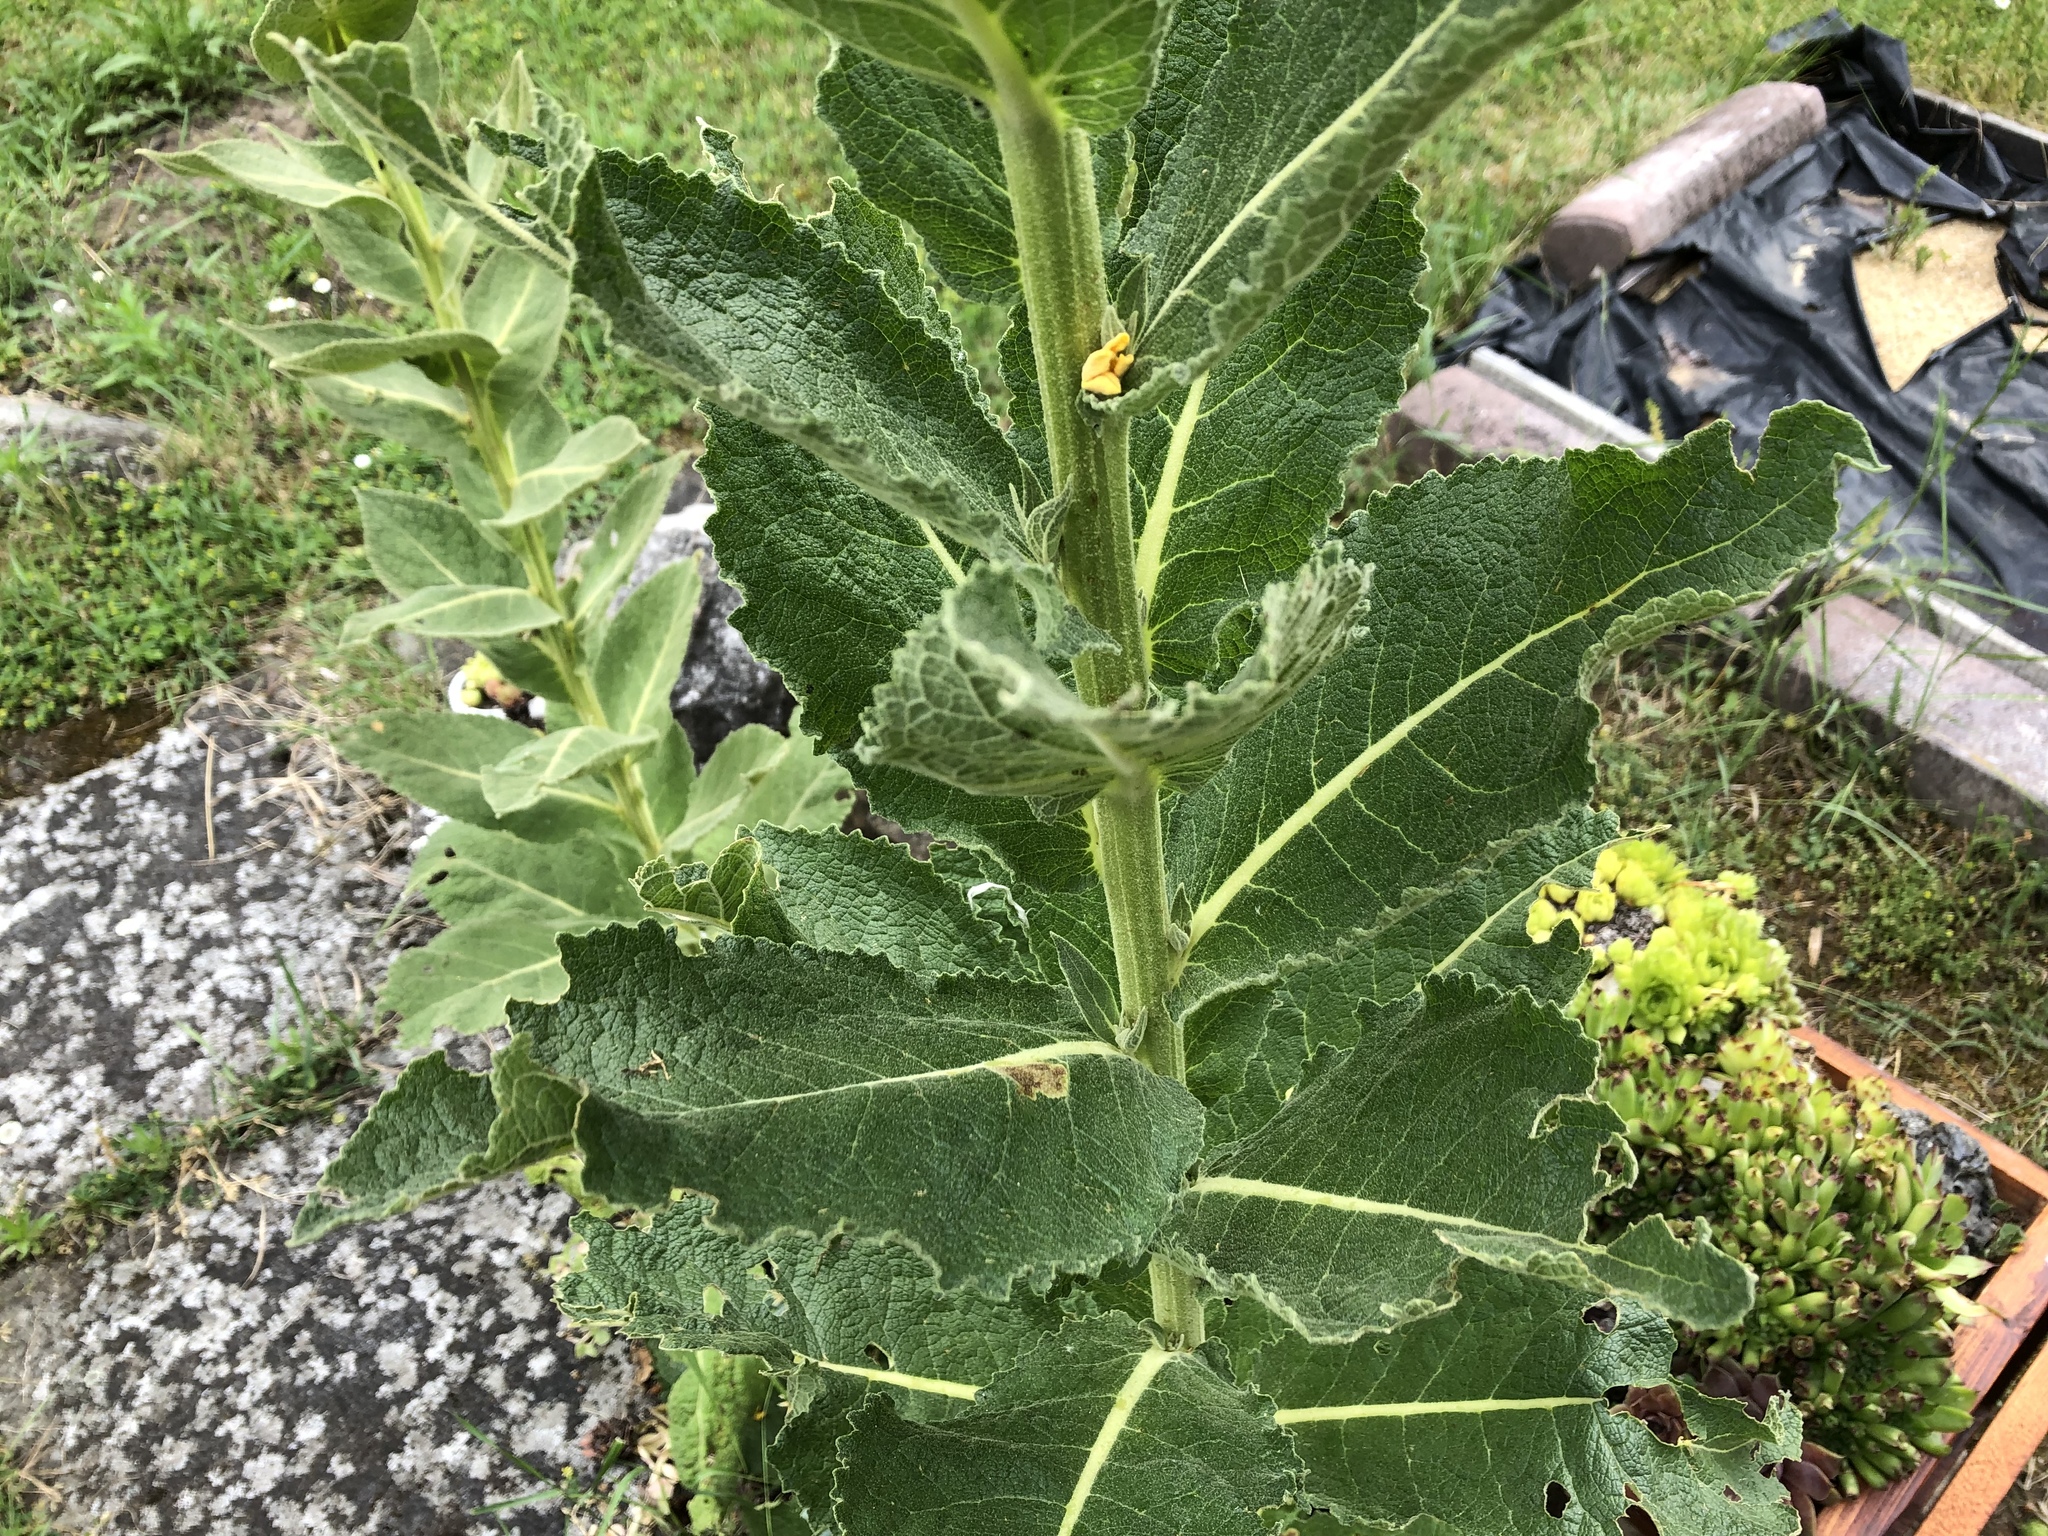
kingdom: Plantae
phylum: Tracheophyta
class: Magnoliopsida
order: Lamiales
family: Scrophulariaceae
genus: Verbascum
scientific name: Verbascum lychnitis
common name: White mullein
